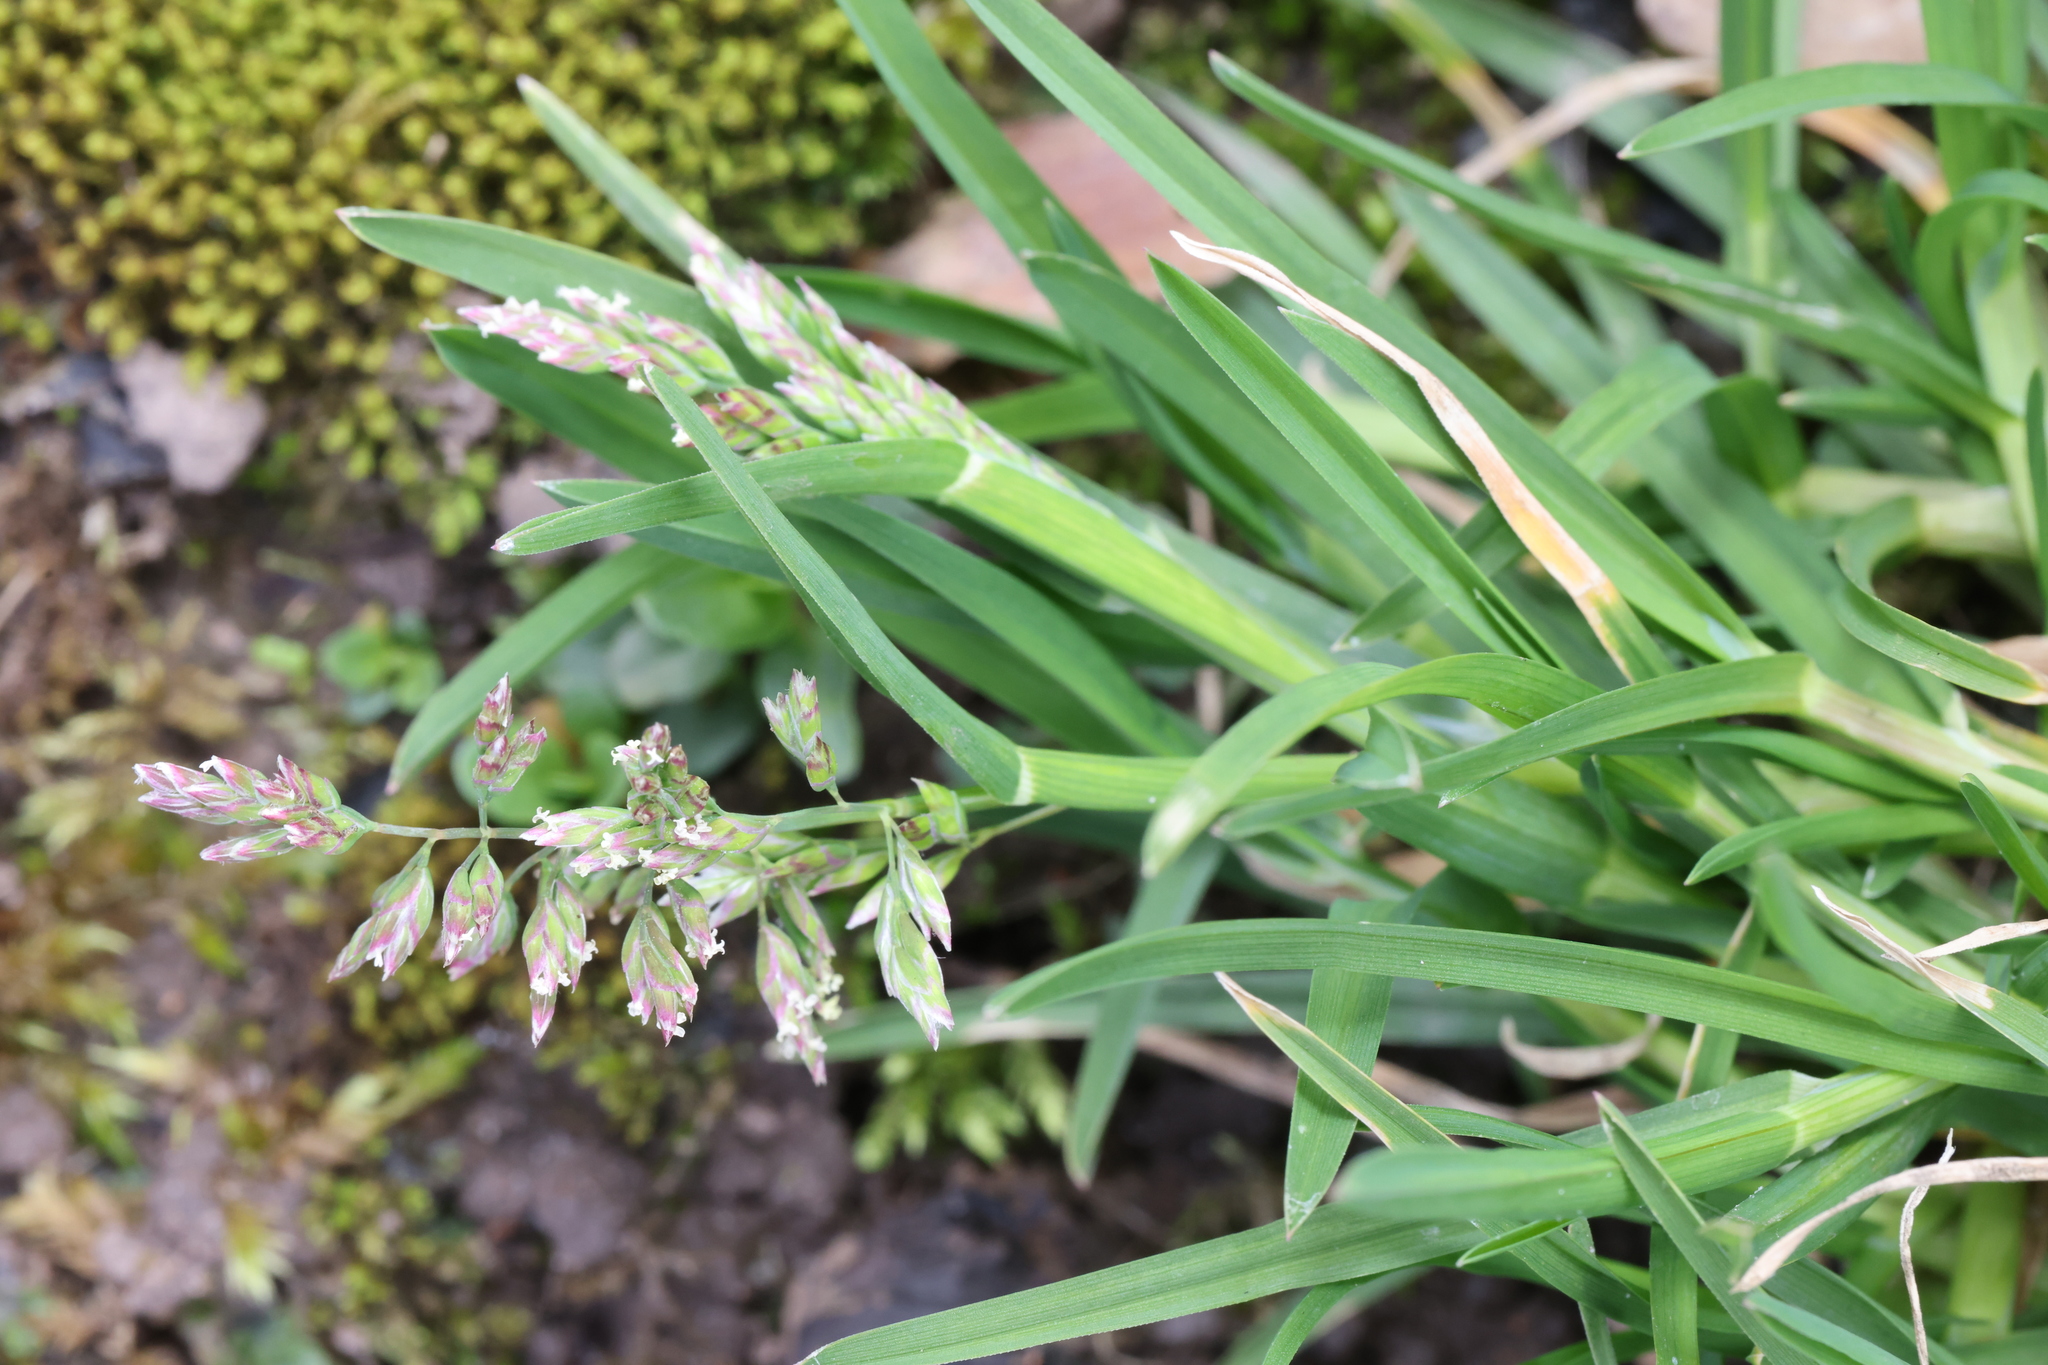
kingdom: Plantae
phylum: Tracheophyta
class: Liliopsida
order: Poales
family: Poaceae
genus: Poa
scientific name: Poa annua
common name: Annual bluegrass
